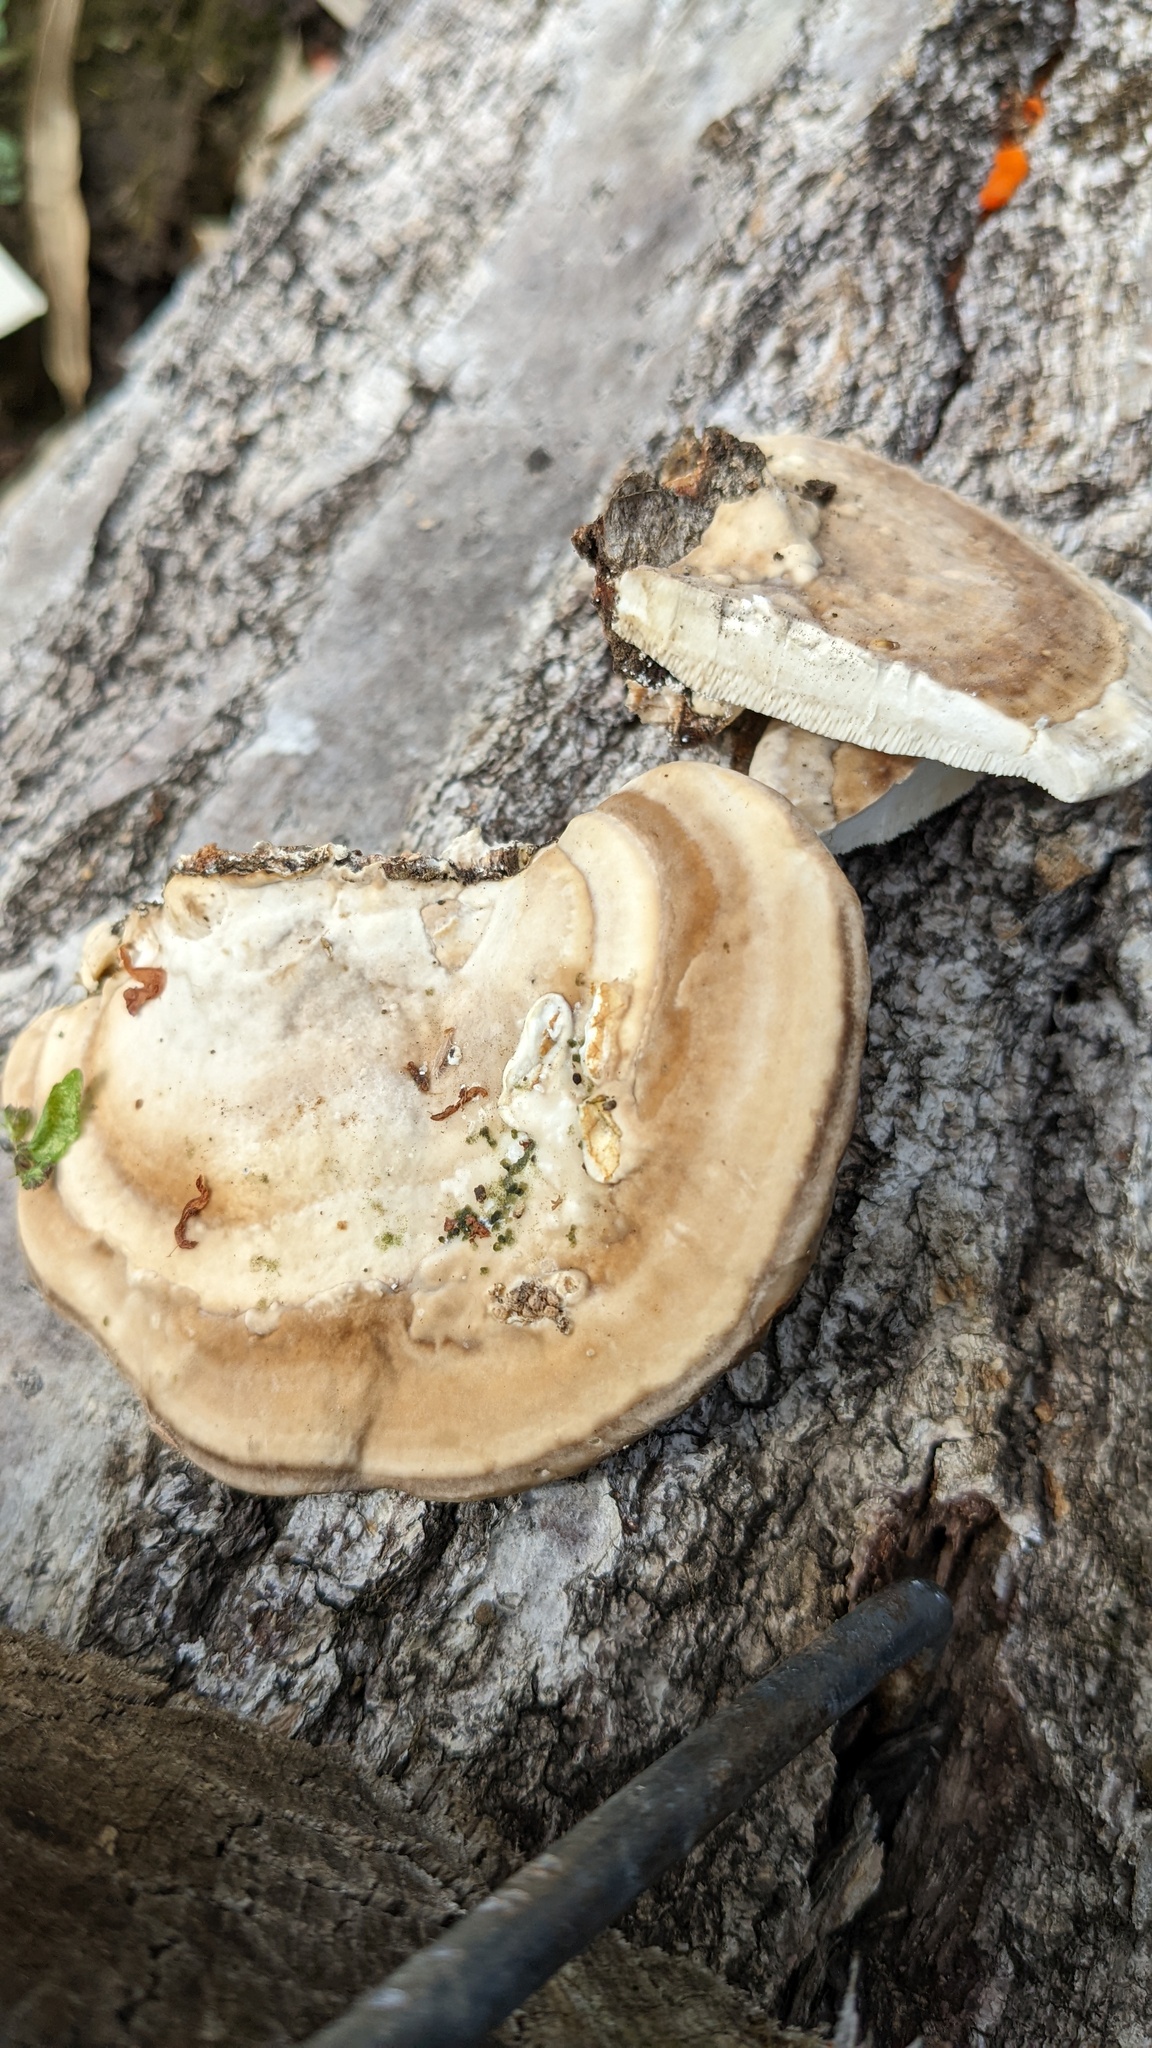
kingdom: Fungi
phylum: Basidiomycota
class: Agaricomycetes
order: Polyporales
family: Polyporaceae
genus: Trametes
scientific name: Trametes orientalis
